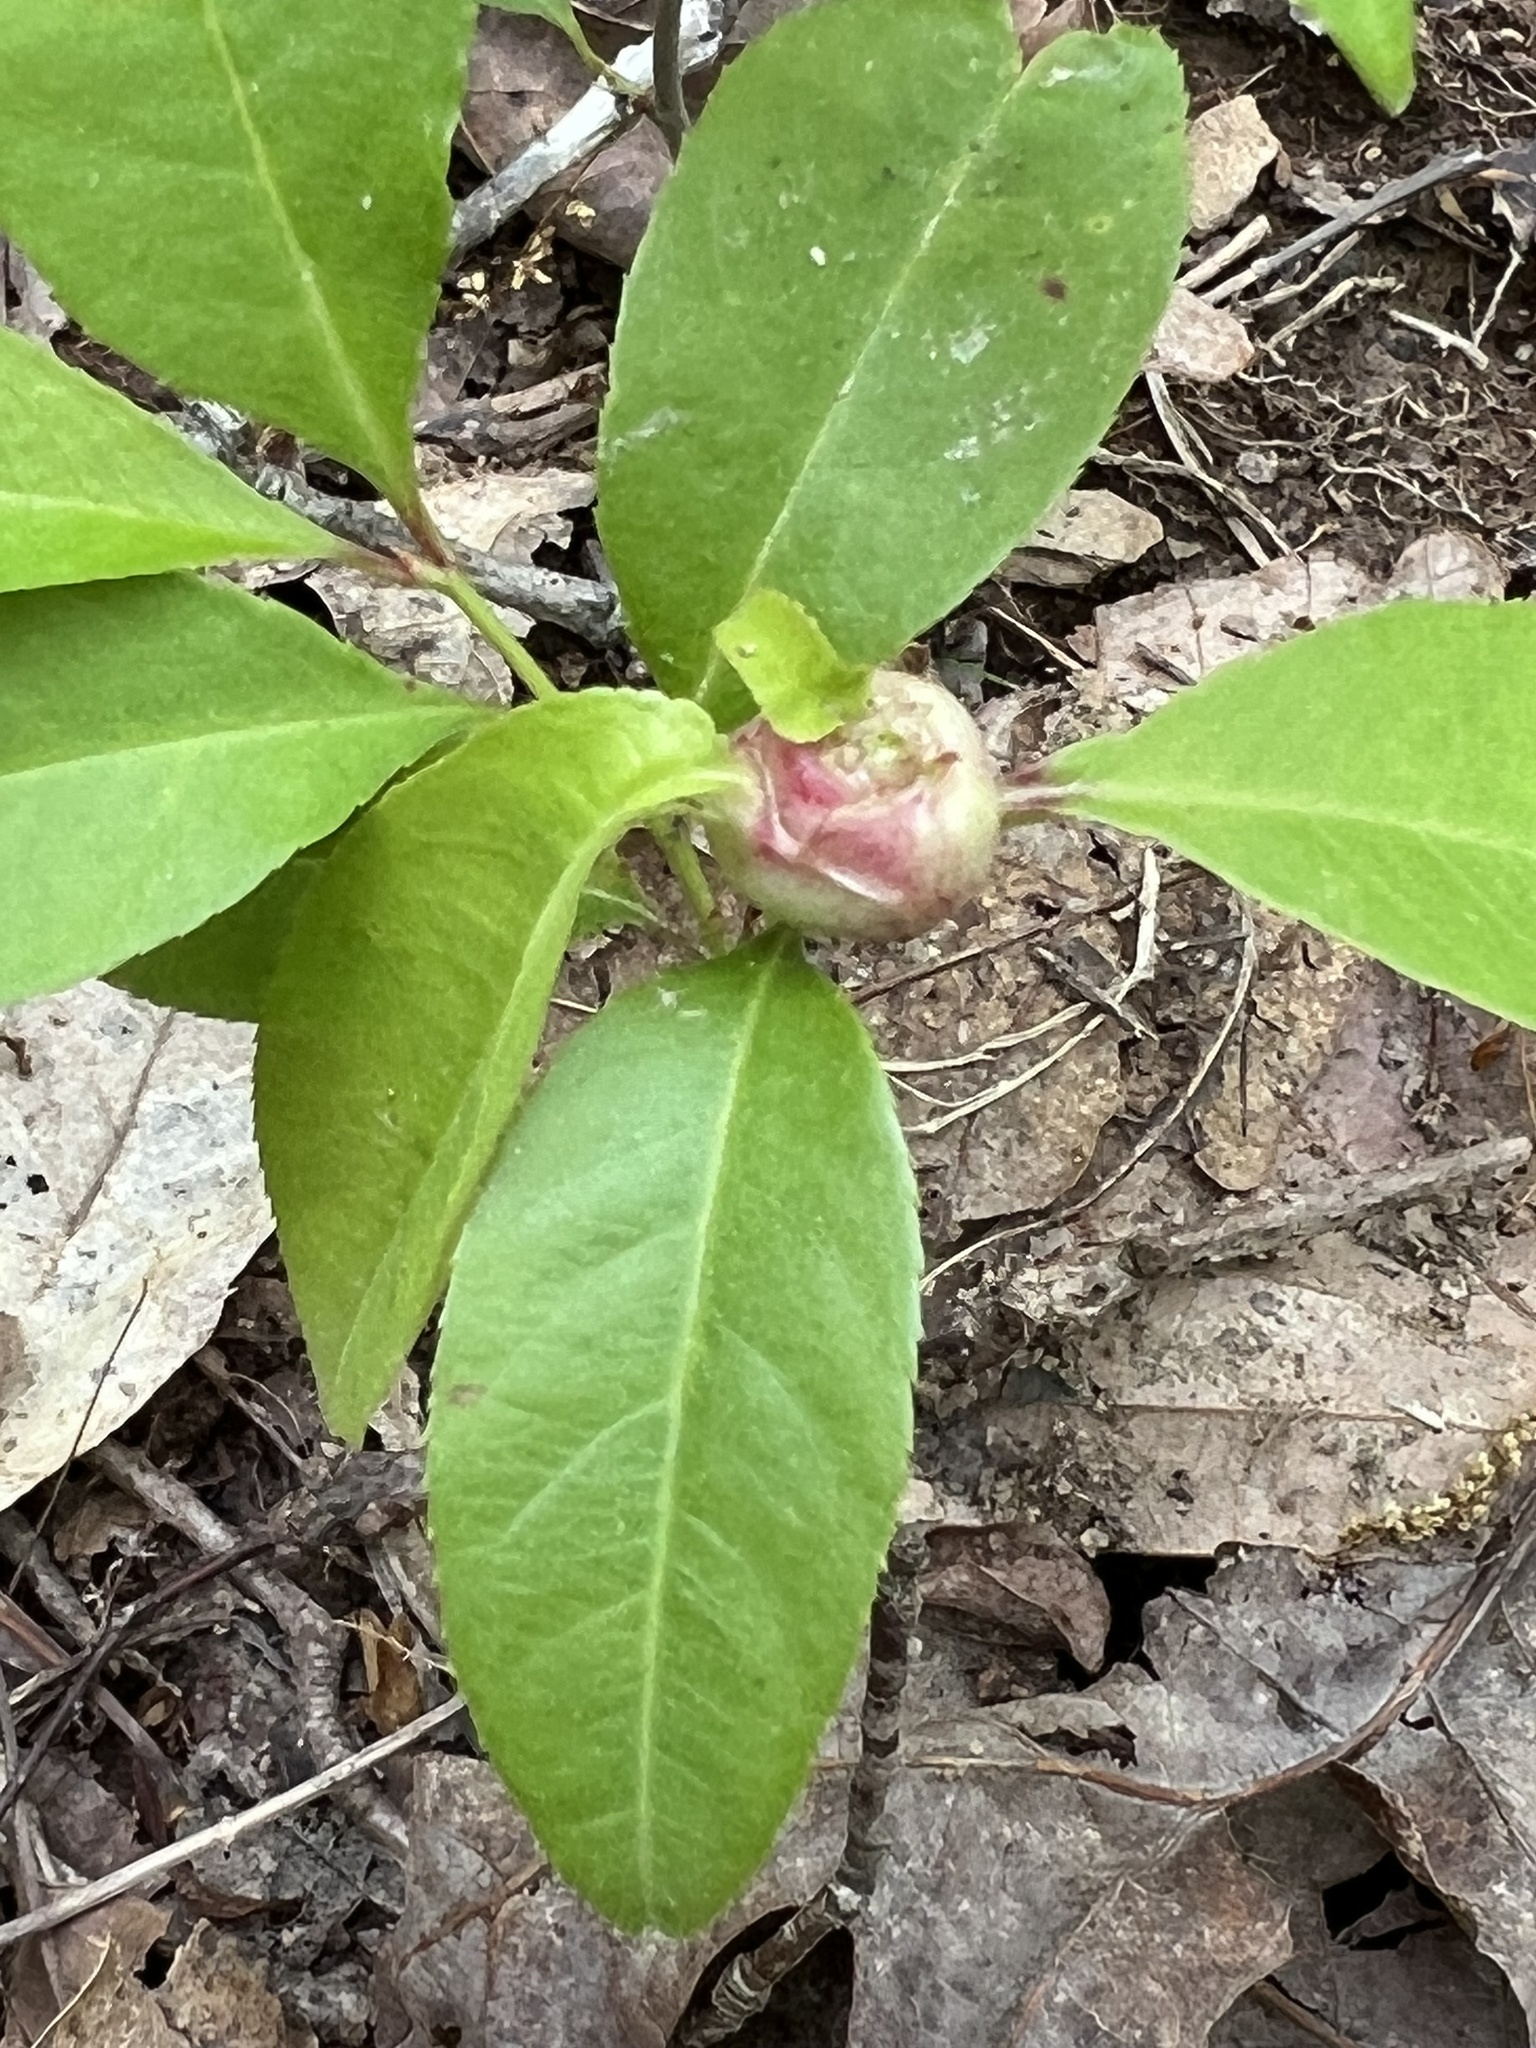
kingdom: Animalia
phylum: Arthropoda
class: Insecta
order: Diptera
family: Cecidomyiidae
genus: Contarinia
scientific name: Contarinia cerasiserotinae
